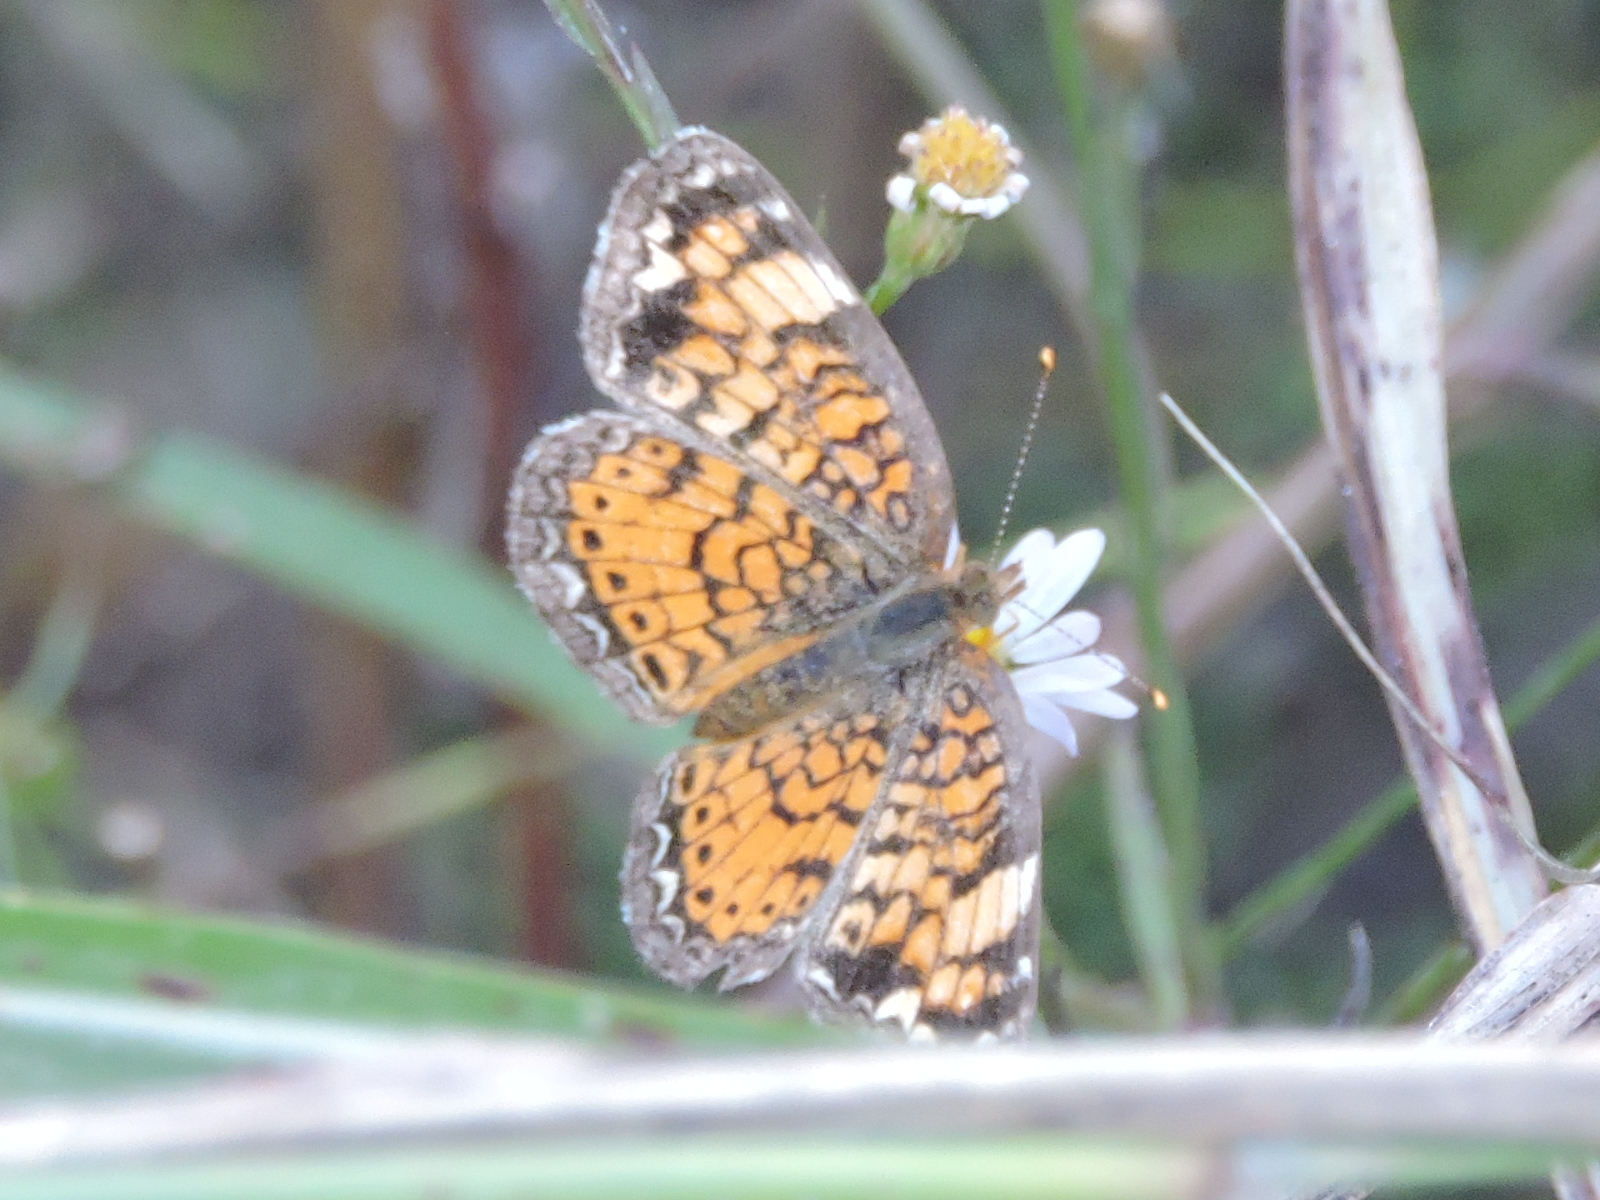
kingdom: Animalia
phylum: Arthropoda
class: Insecta
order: Lepidoptera
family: Nymphalidae
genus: Phyciodes
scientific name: Phyciodes tharos
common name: Pearl crescent
